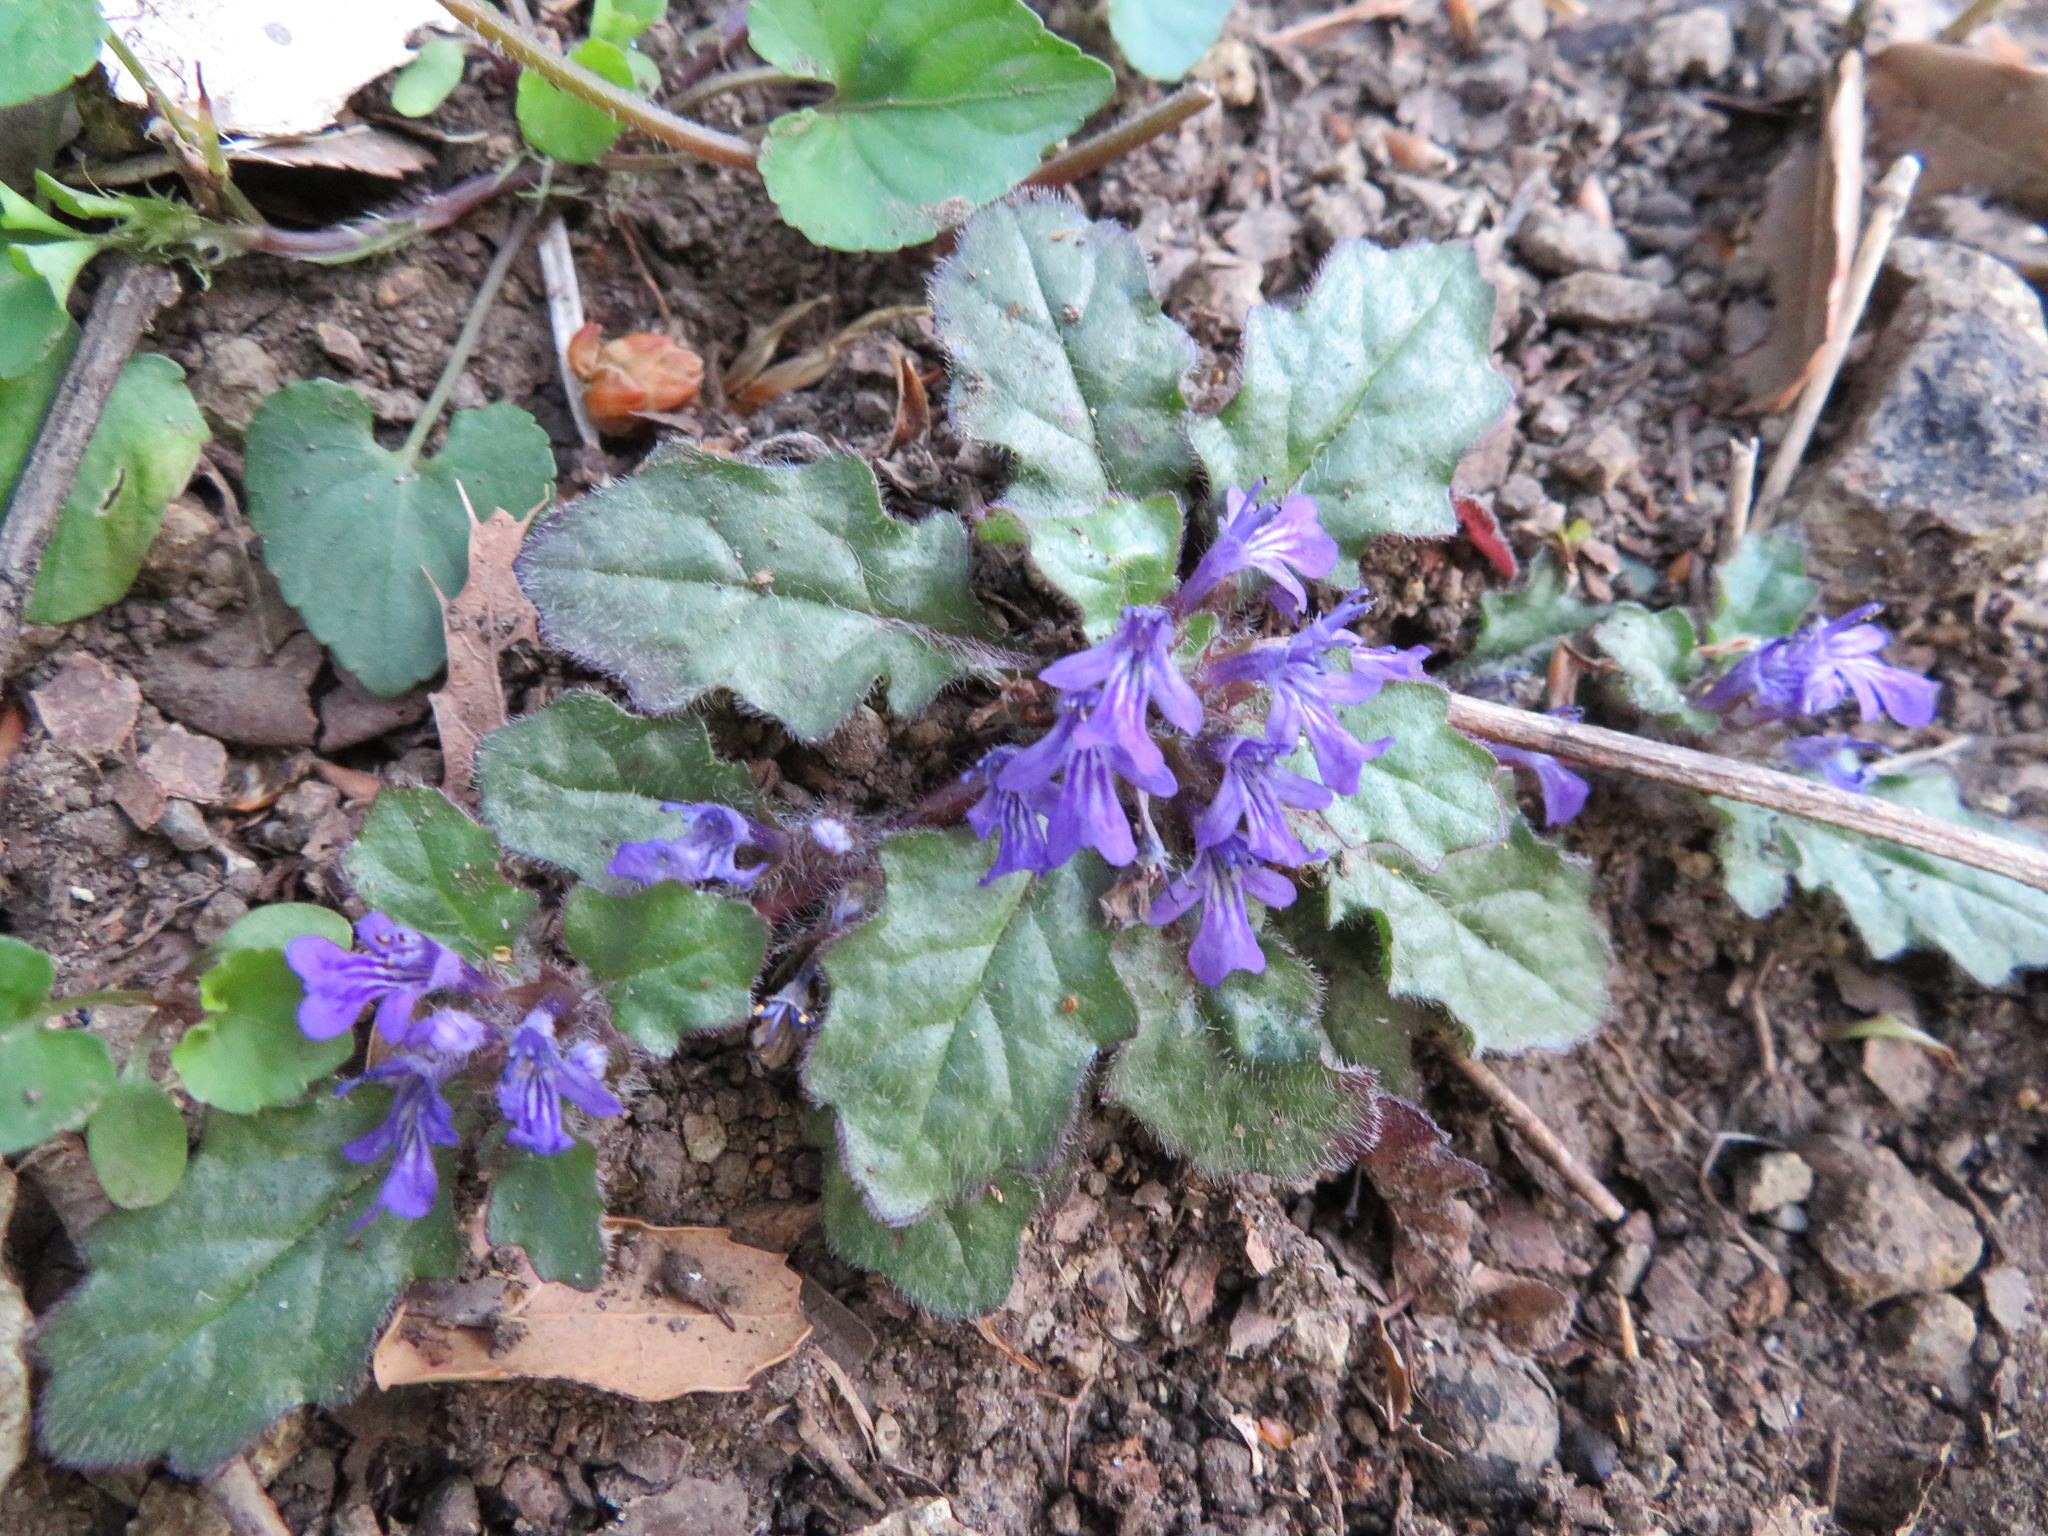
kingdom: Plantae
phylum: Tracheophyta
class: Magnoliopsida
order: Lamiales
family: Lamiaceae
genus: Ajuga
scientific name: Ajuga decumbens
